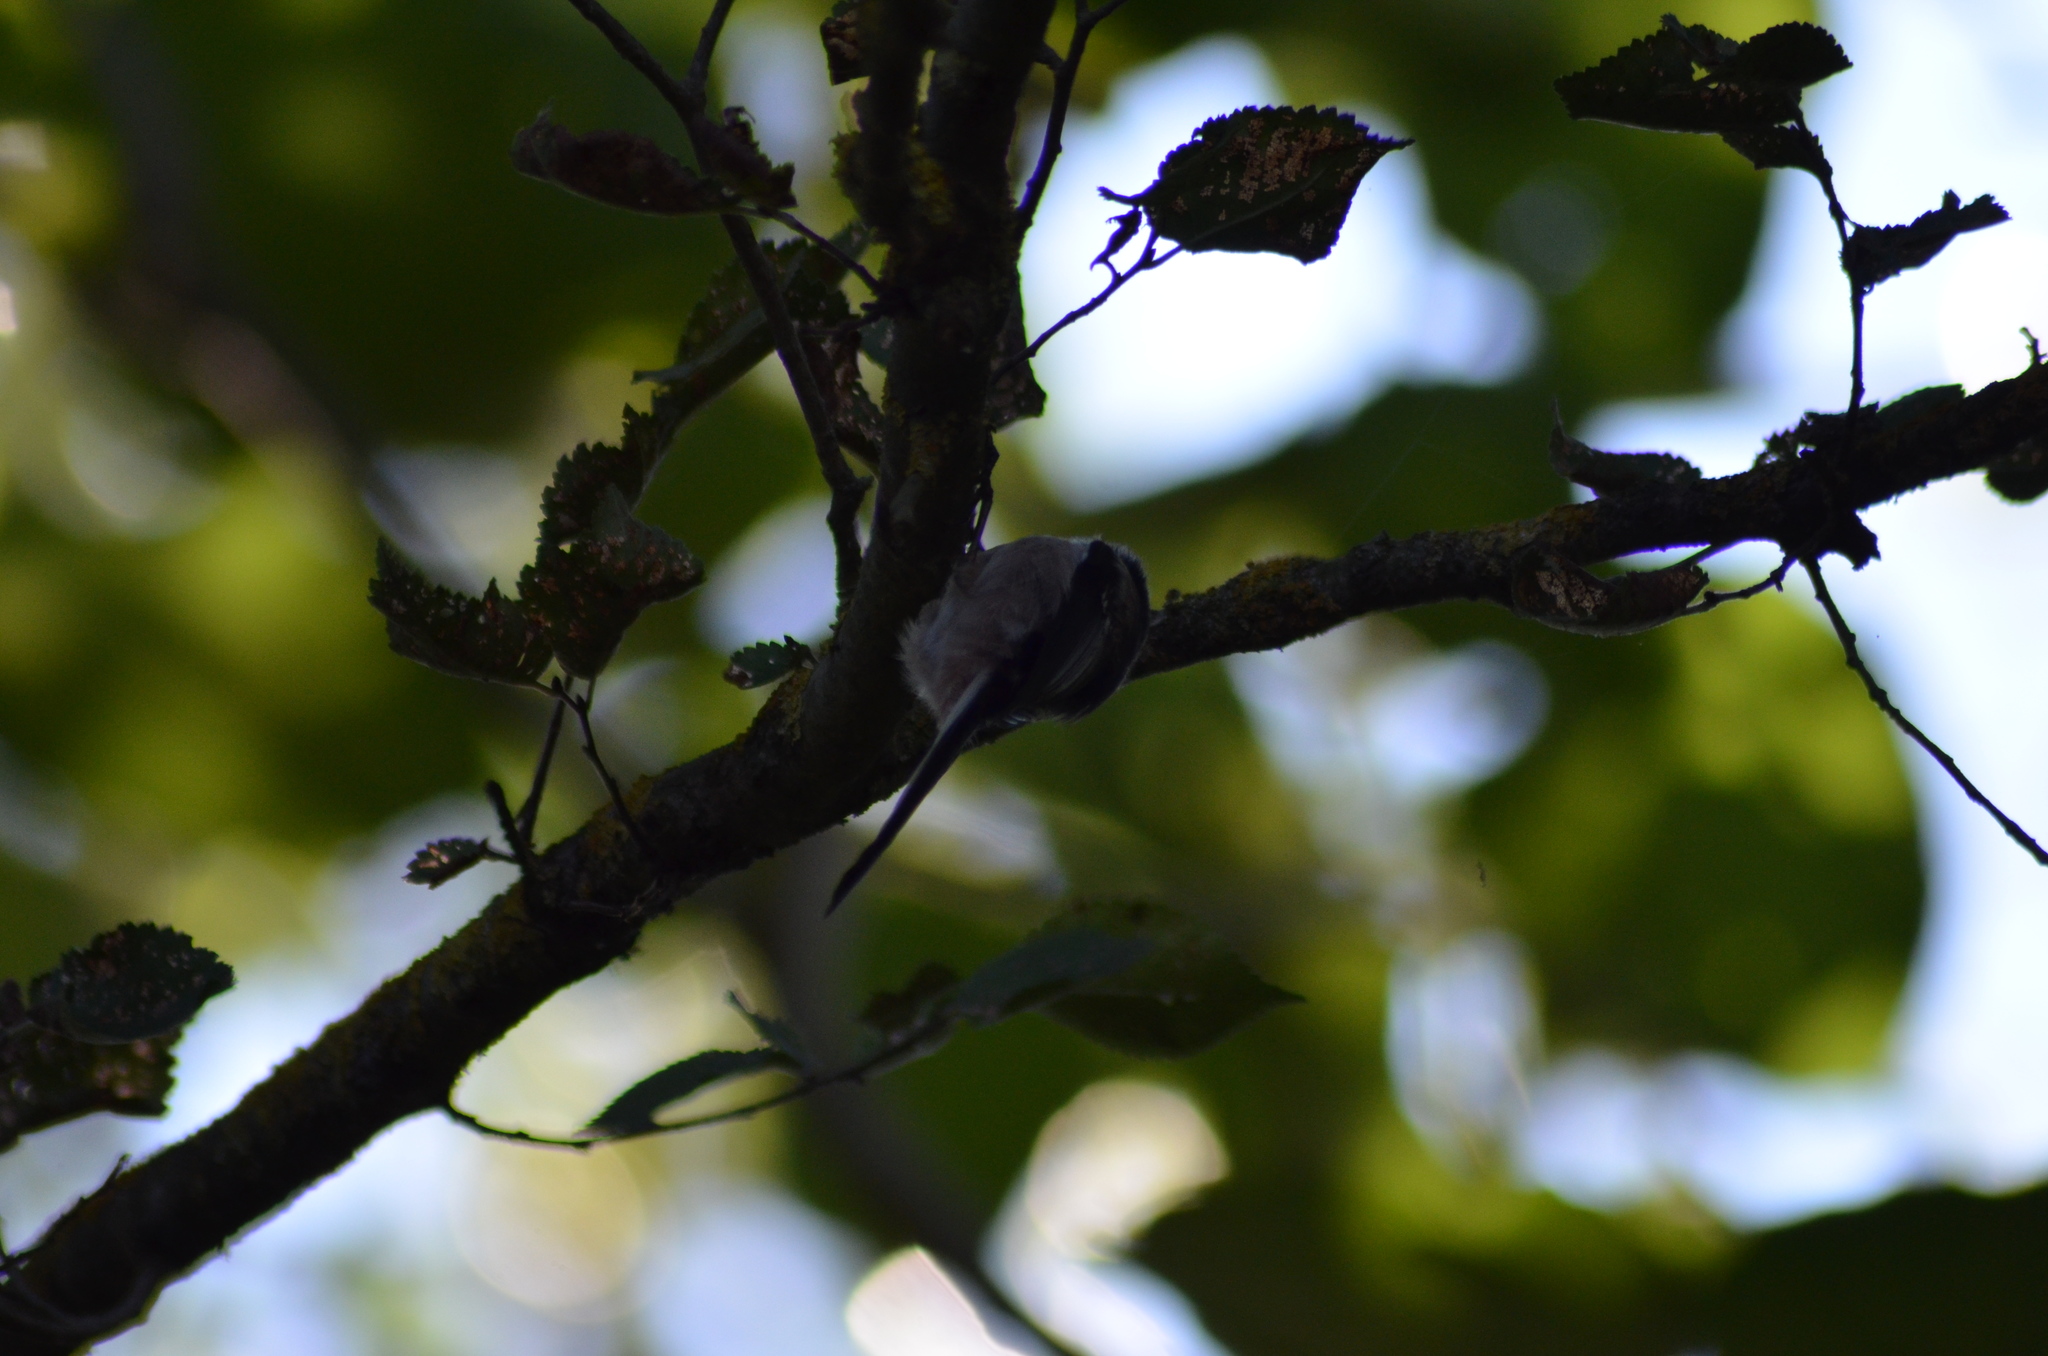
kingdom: Animalia
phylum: Chordata
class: Aves
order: Passeriformes
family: Aegithalidae
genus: Aegithalos
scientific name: Aegithalos caudatus
